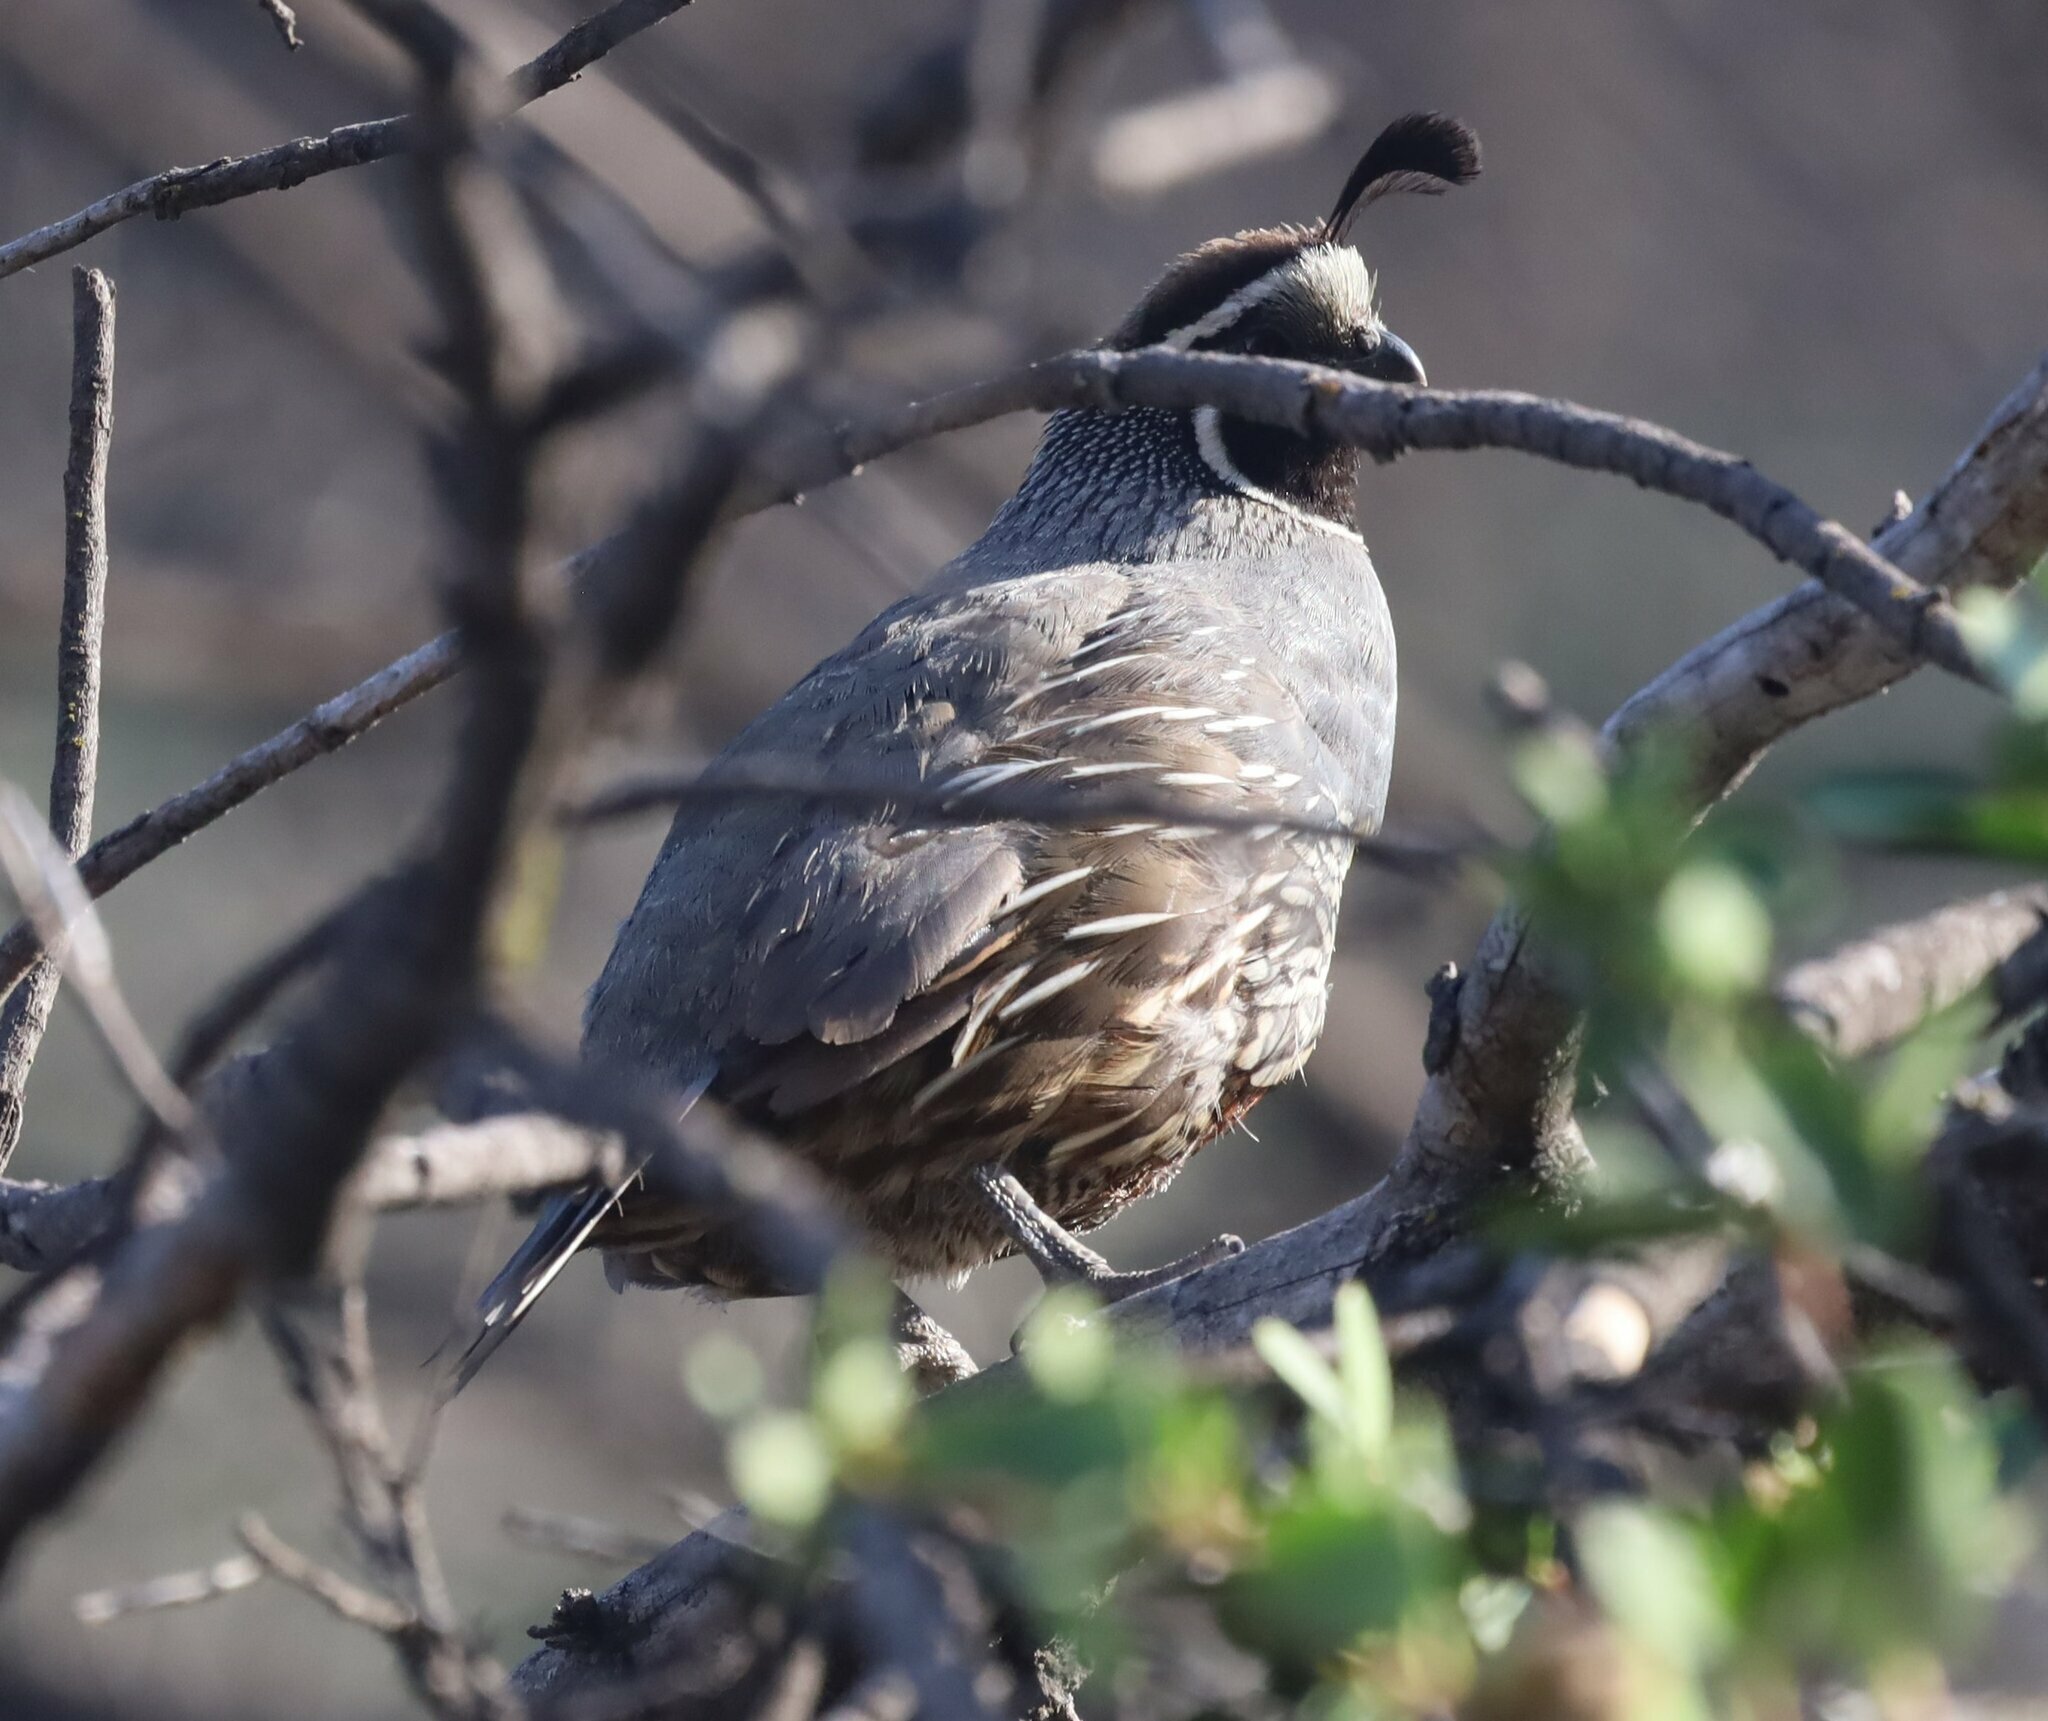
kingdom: Animalia
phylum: Chordata
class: Aves
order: Galliformes
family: Odontophoridae
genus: Callipepla
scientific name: Callipepla californica
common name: California quail
